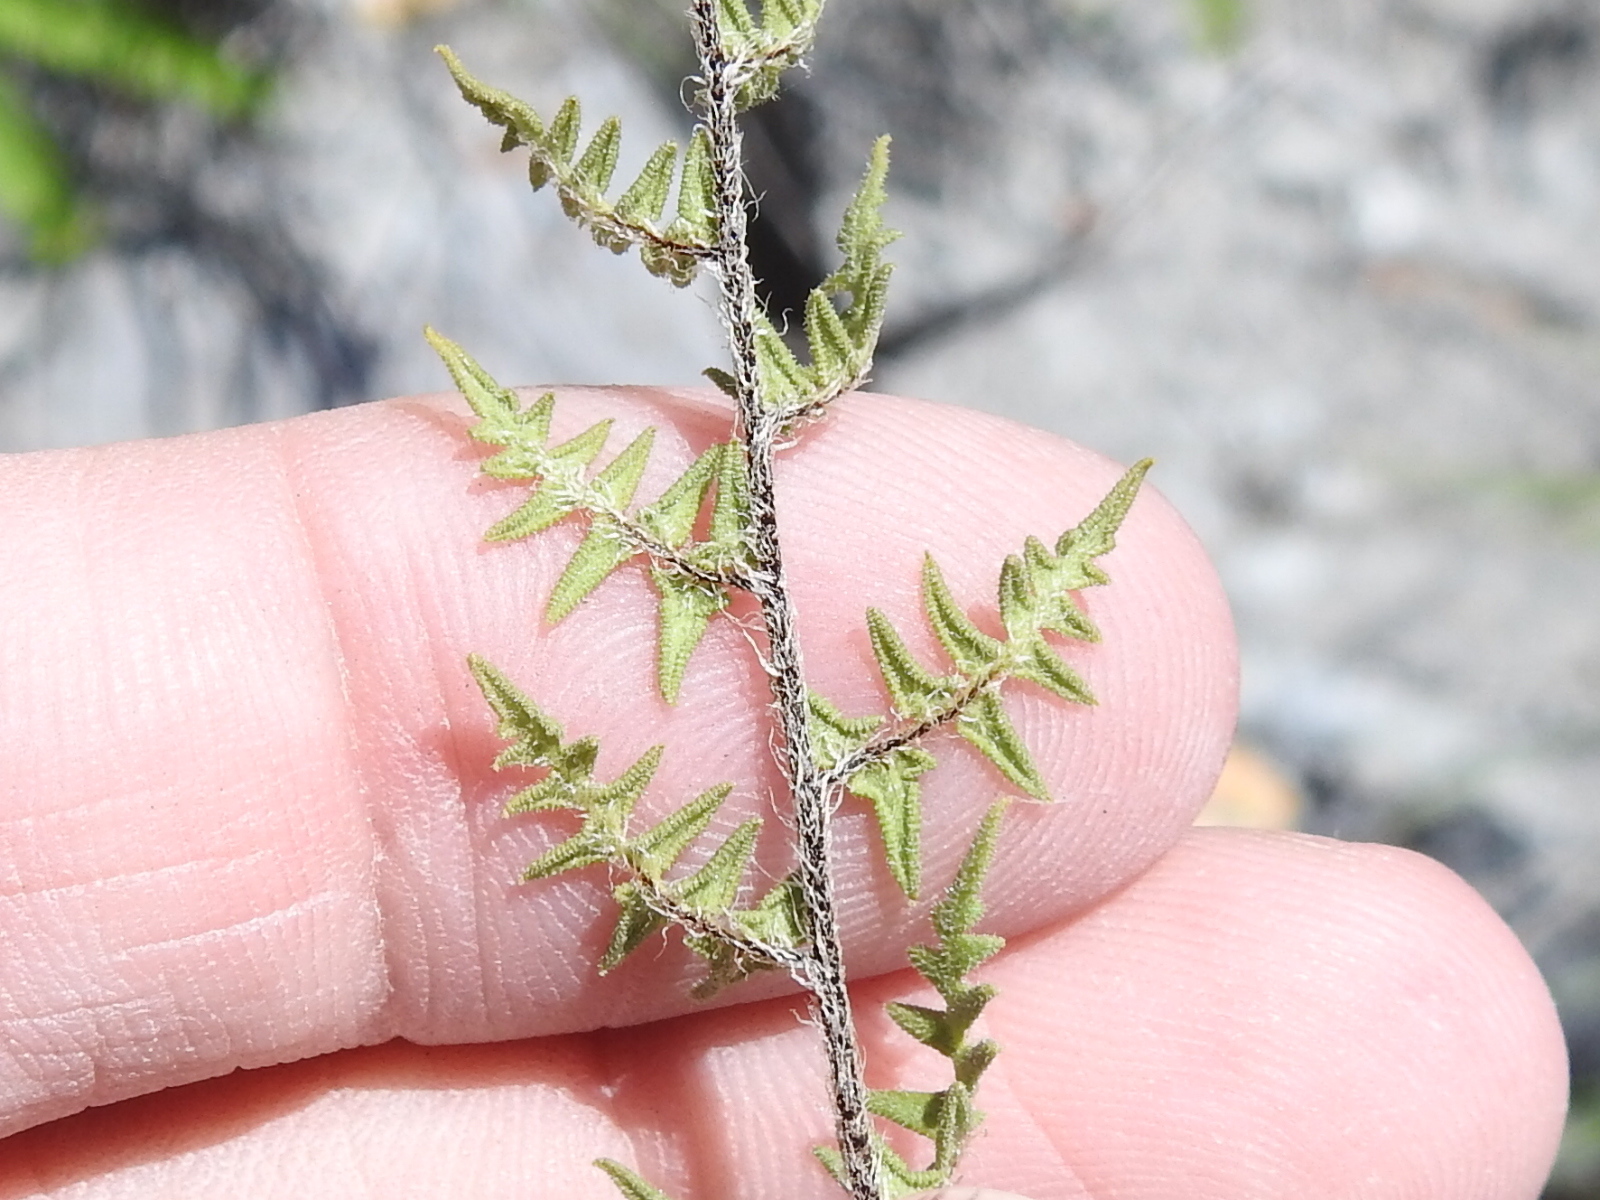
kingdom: Plantae
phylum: Tracheophyta
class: Polypodiopsida
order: Polypodiales
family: Pteridaceae
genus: Myriopteris
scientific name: Myriopteris scabra
